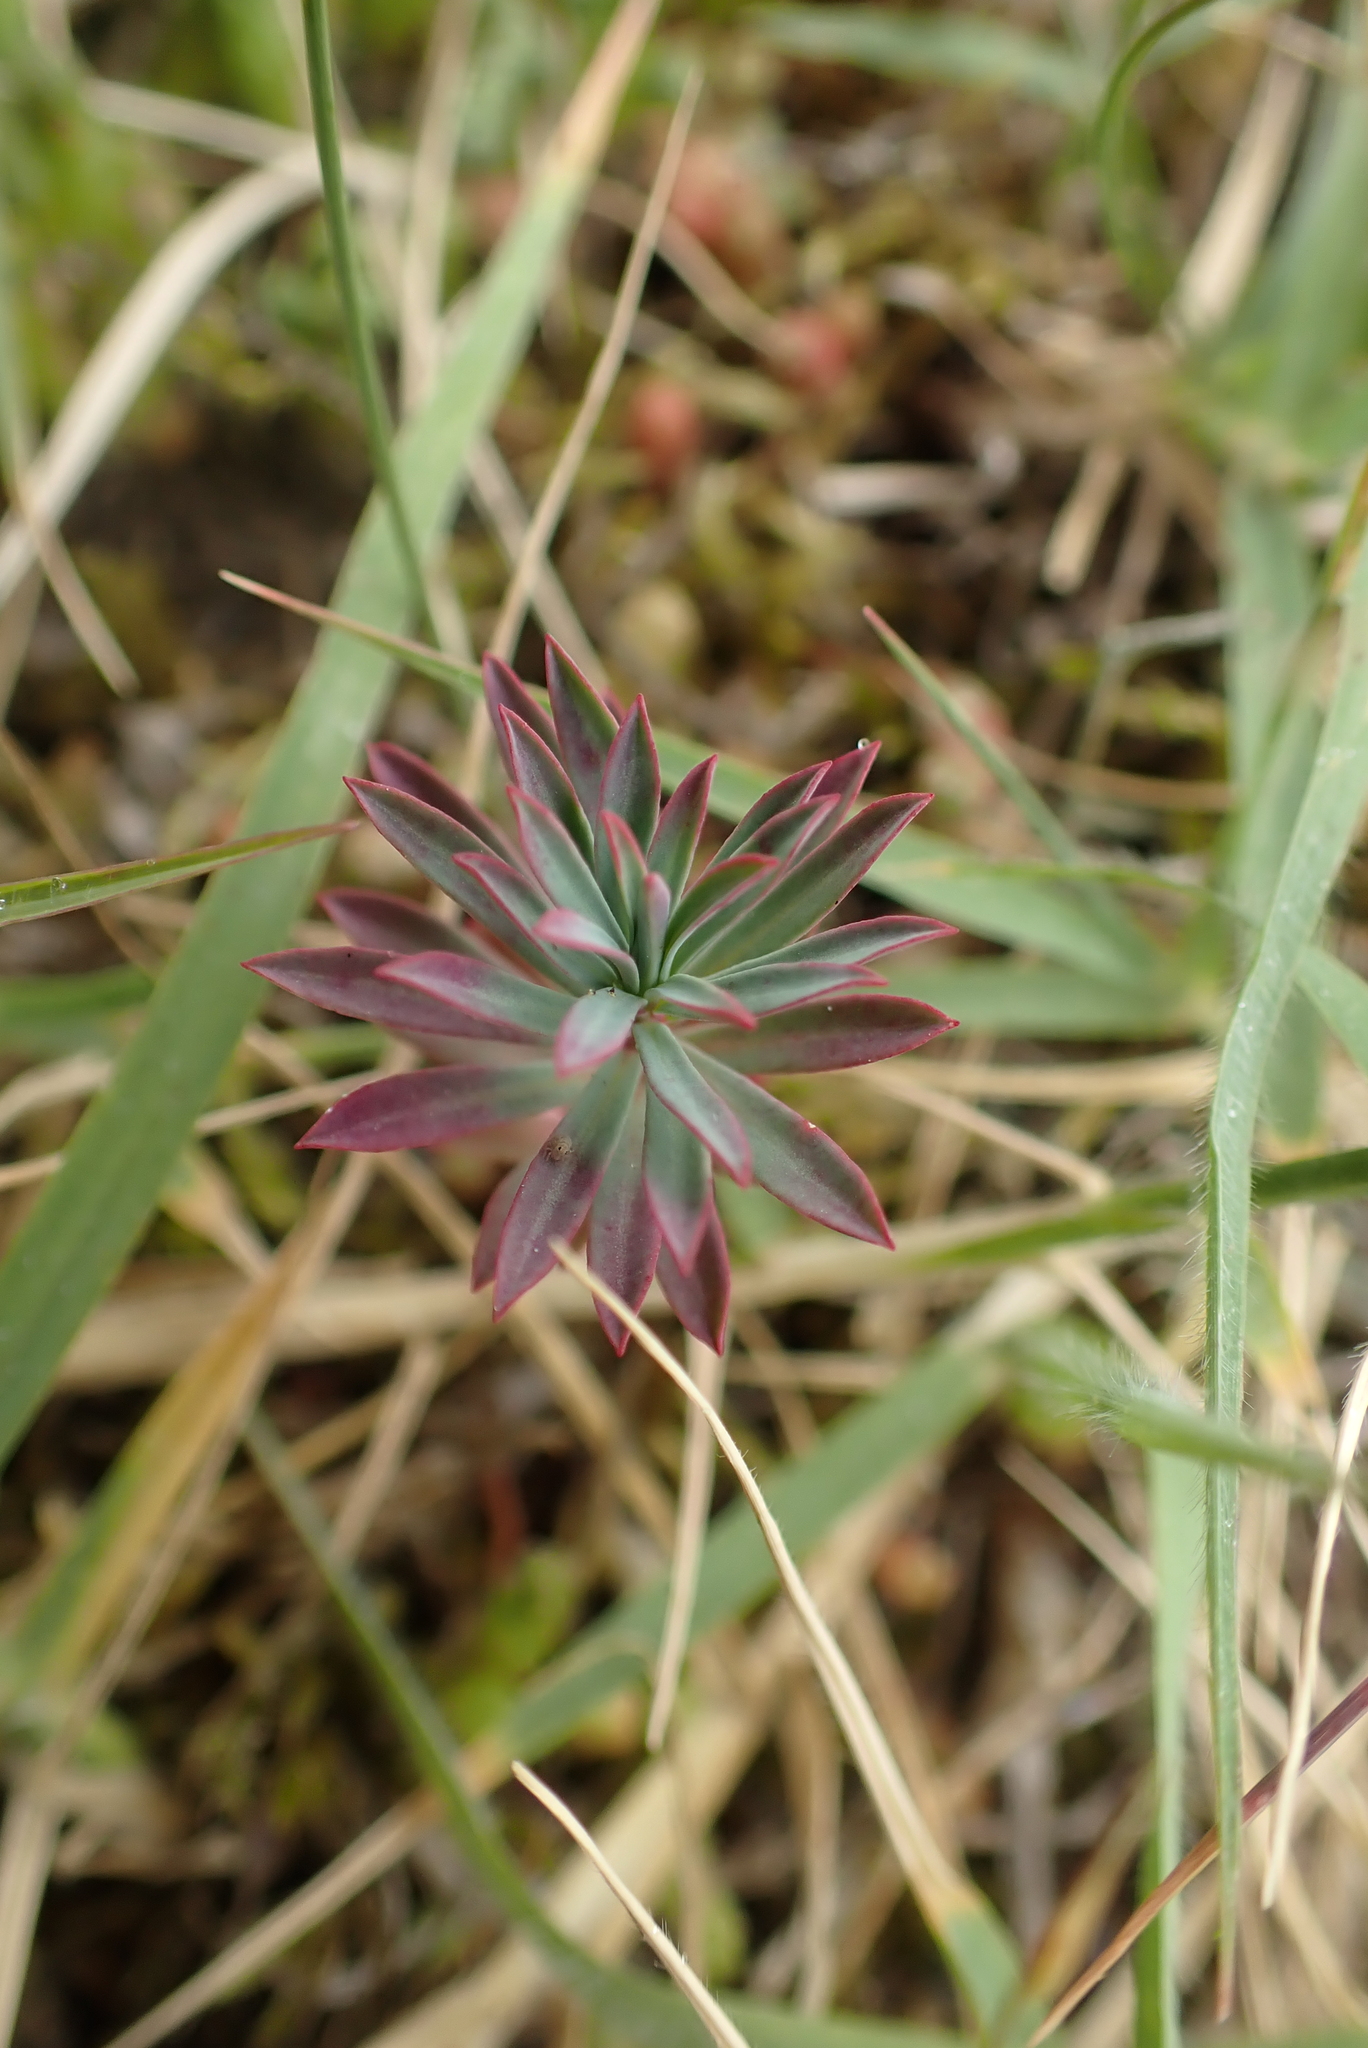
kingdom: Plantae
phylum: Tracheophyta
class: Magnoliopsida
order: Malpighiales
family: Euphorbiaceae
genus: Euphorbia
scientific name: Euphorbia portlandica
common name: Portland spurge
